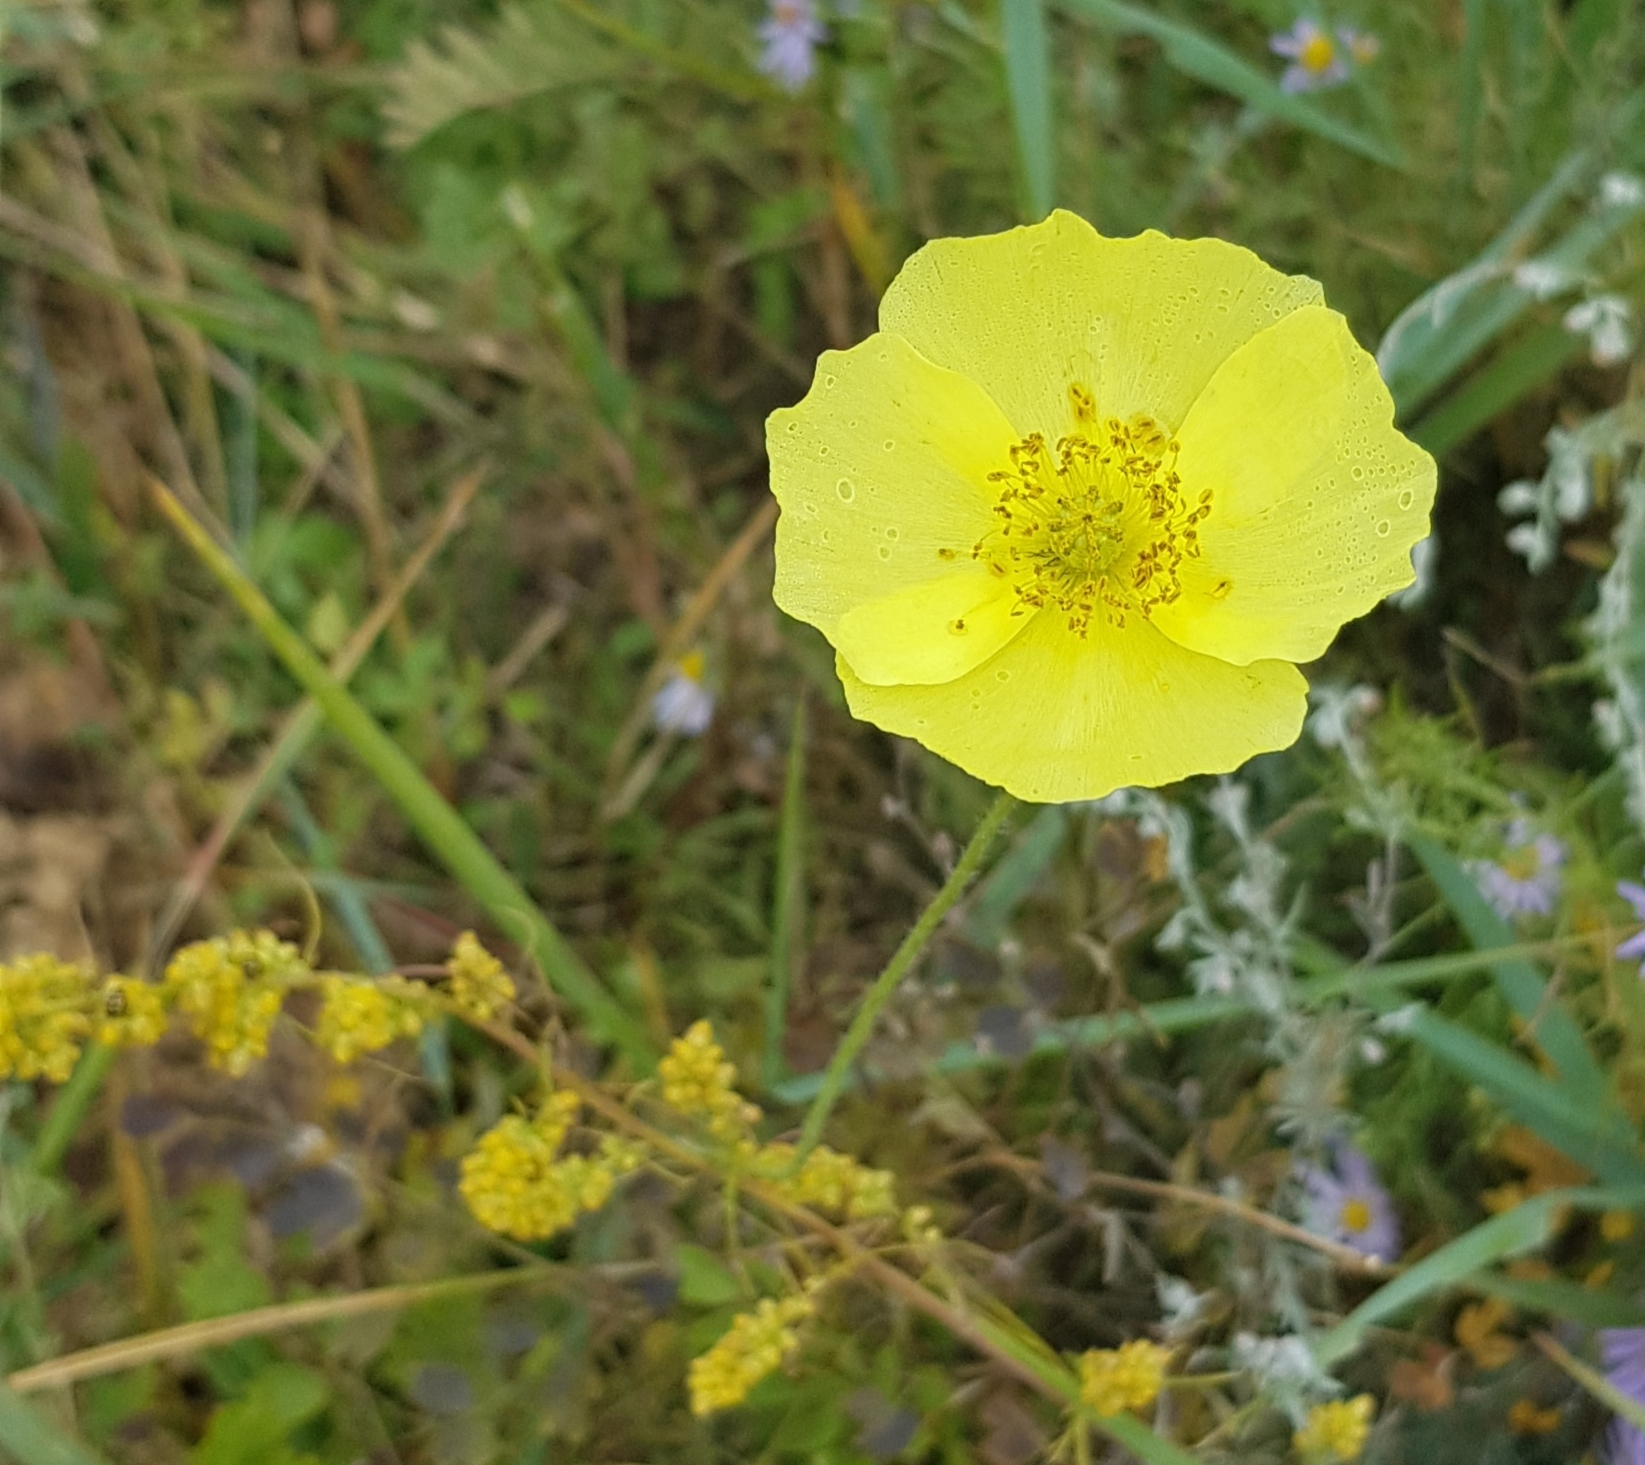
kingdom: Plantae
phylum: Tracheophyta
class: Magnoliopsida
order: Ranunculales
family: Papaveraceae
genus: Papaver
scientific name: Papaver nudicaule
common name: Arctic poppy
